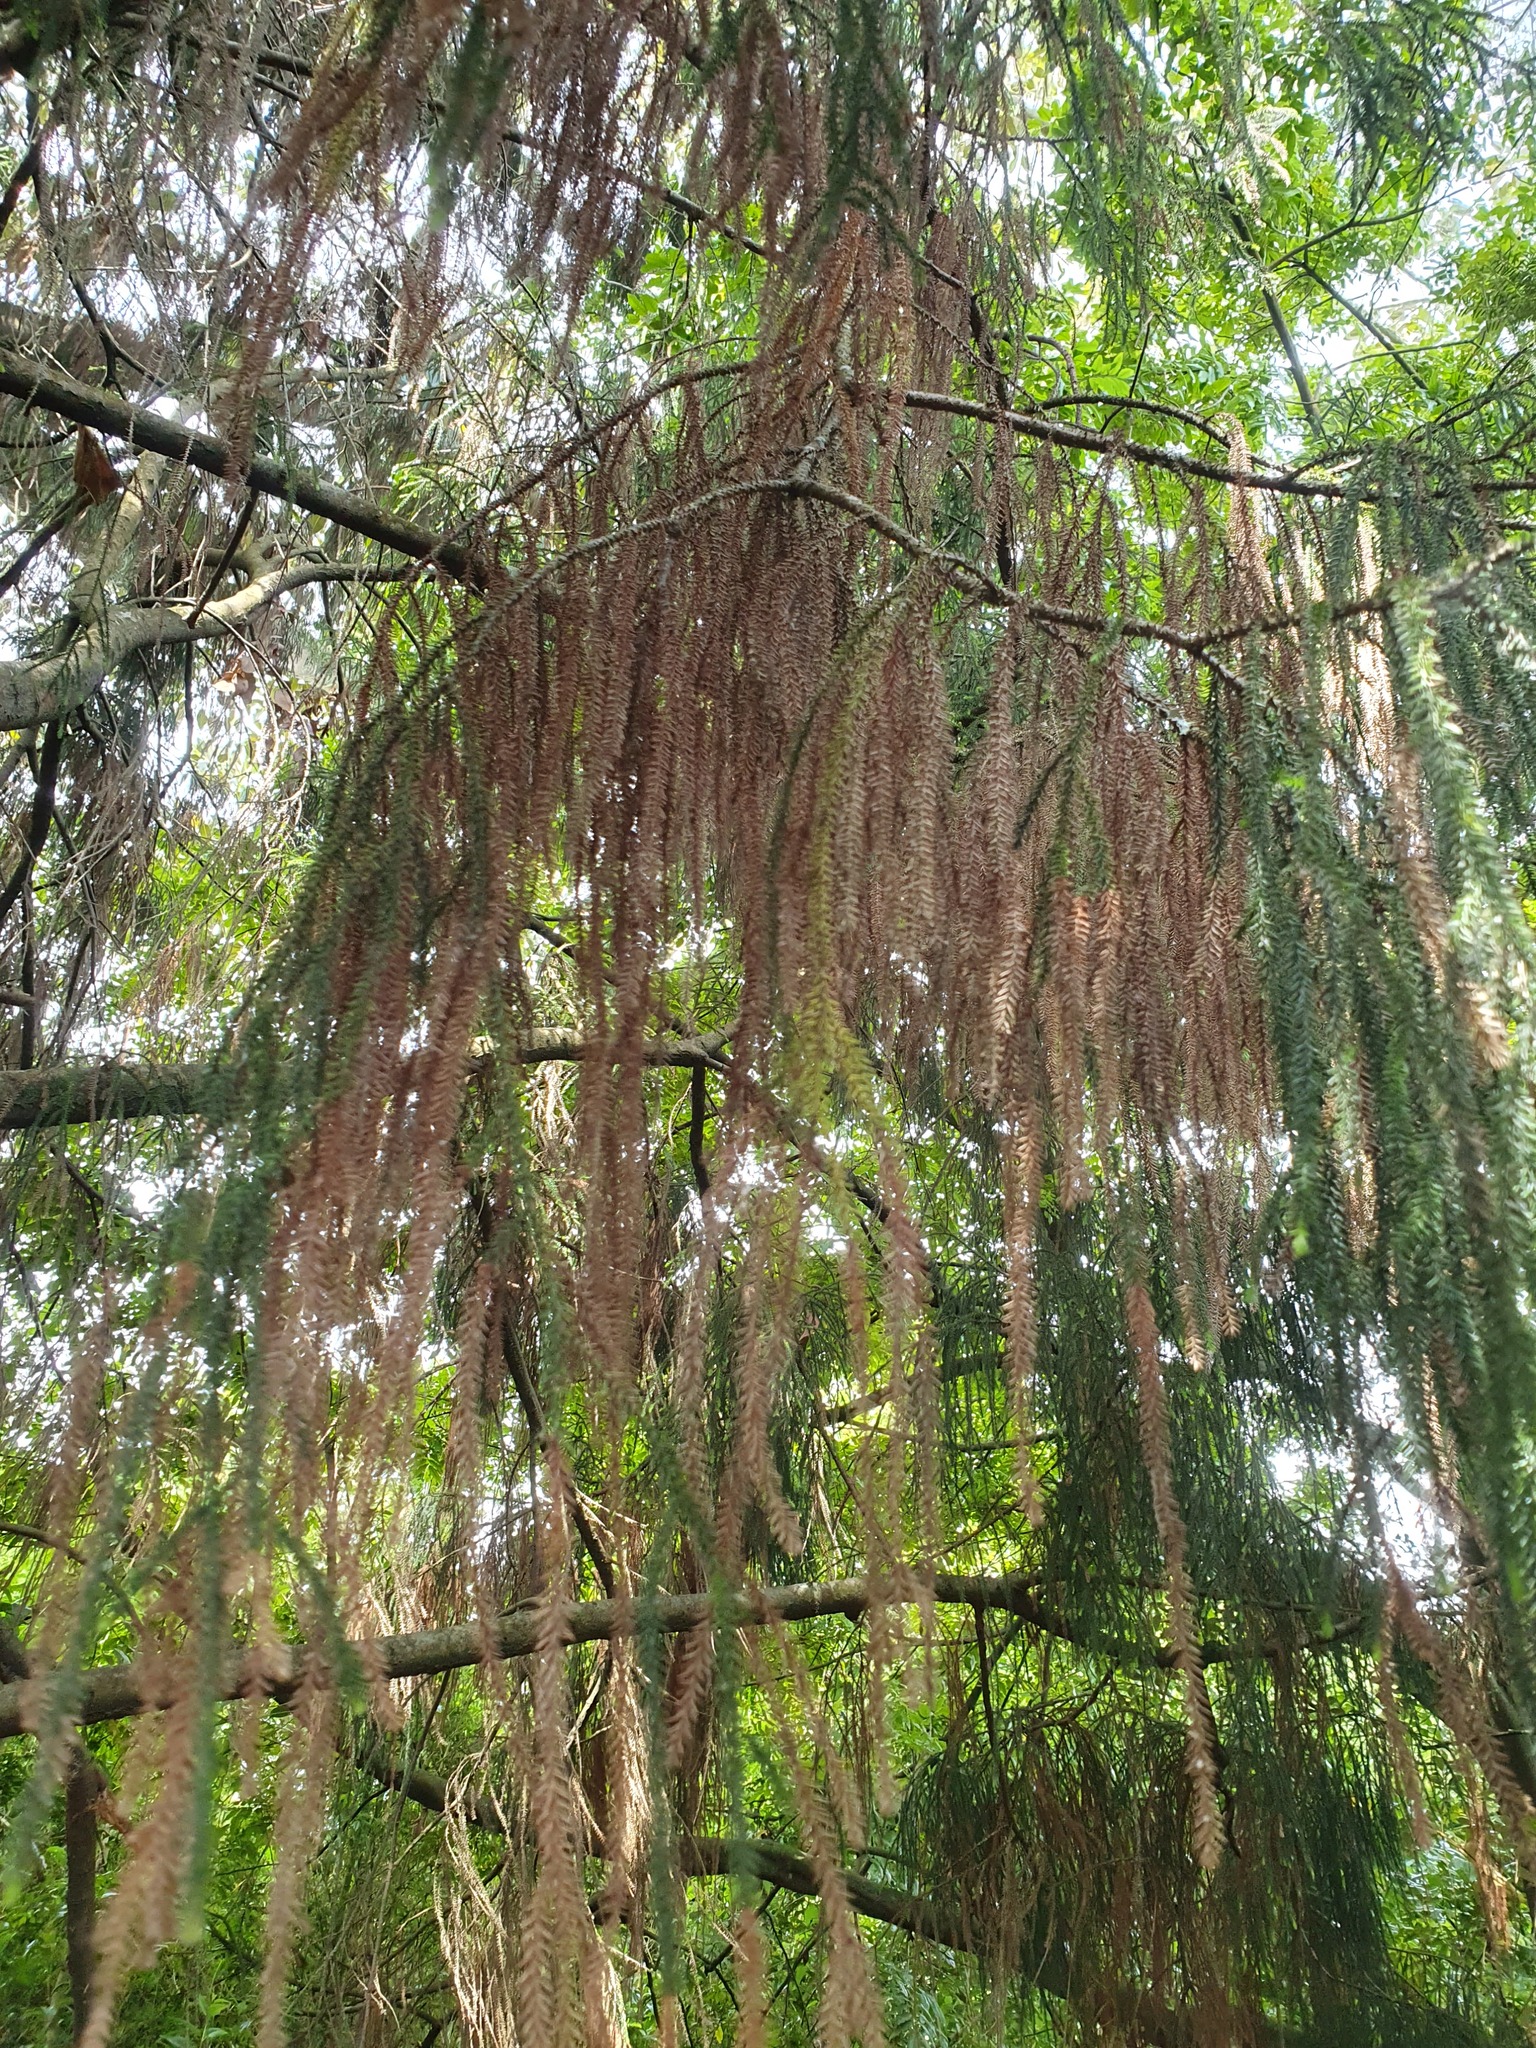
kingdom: Plantae
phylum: Tracheophyta
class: Pinopsida
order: Pinales
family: Podocarpaceae
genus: Dacrydium
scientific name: Dacrydium cupressinum
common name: Red pine
